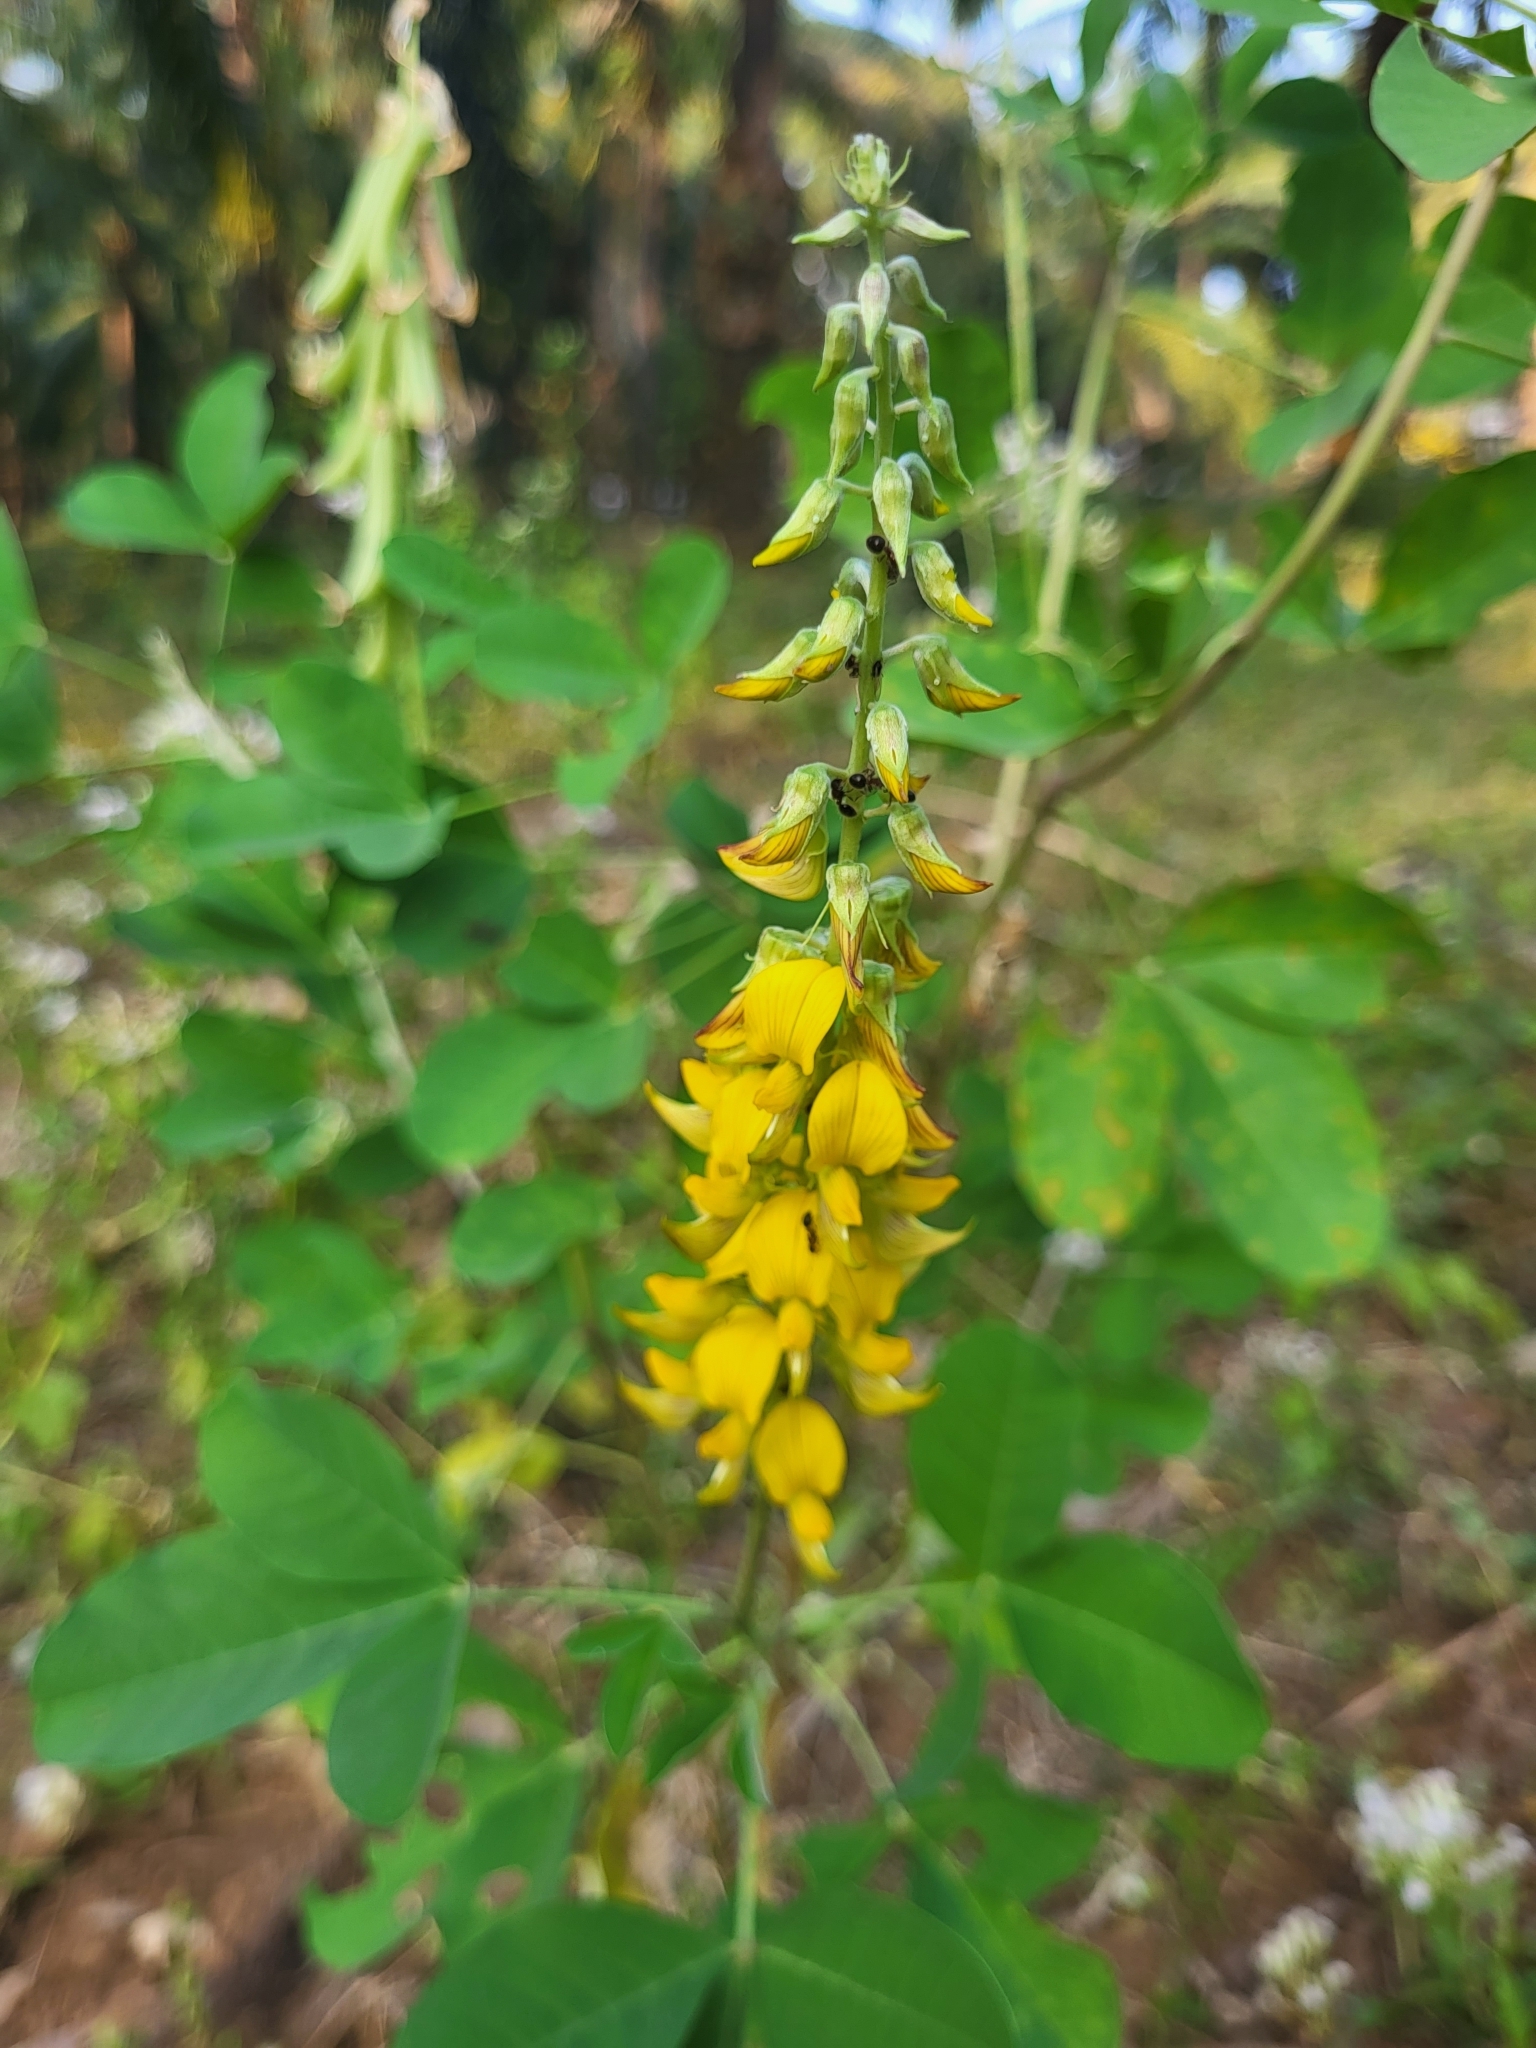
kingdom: Plantae
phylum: Tracheophyta
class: Magnoliopsida
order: Fabales
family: Fabaceae
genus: Crotalaria
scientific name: Crotalaria pallida
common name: Smooth rattlebox
